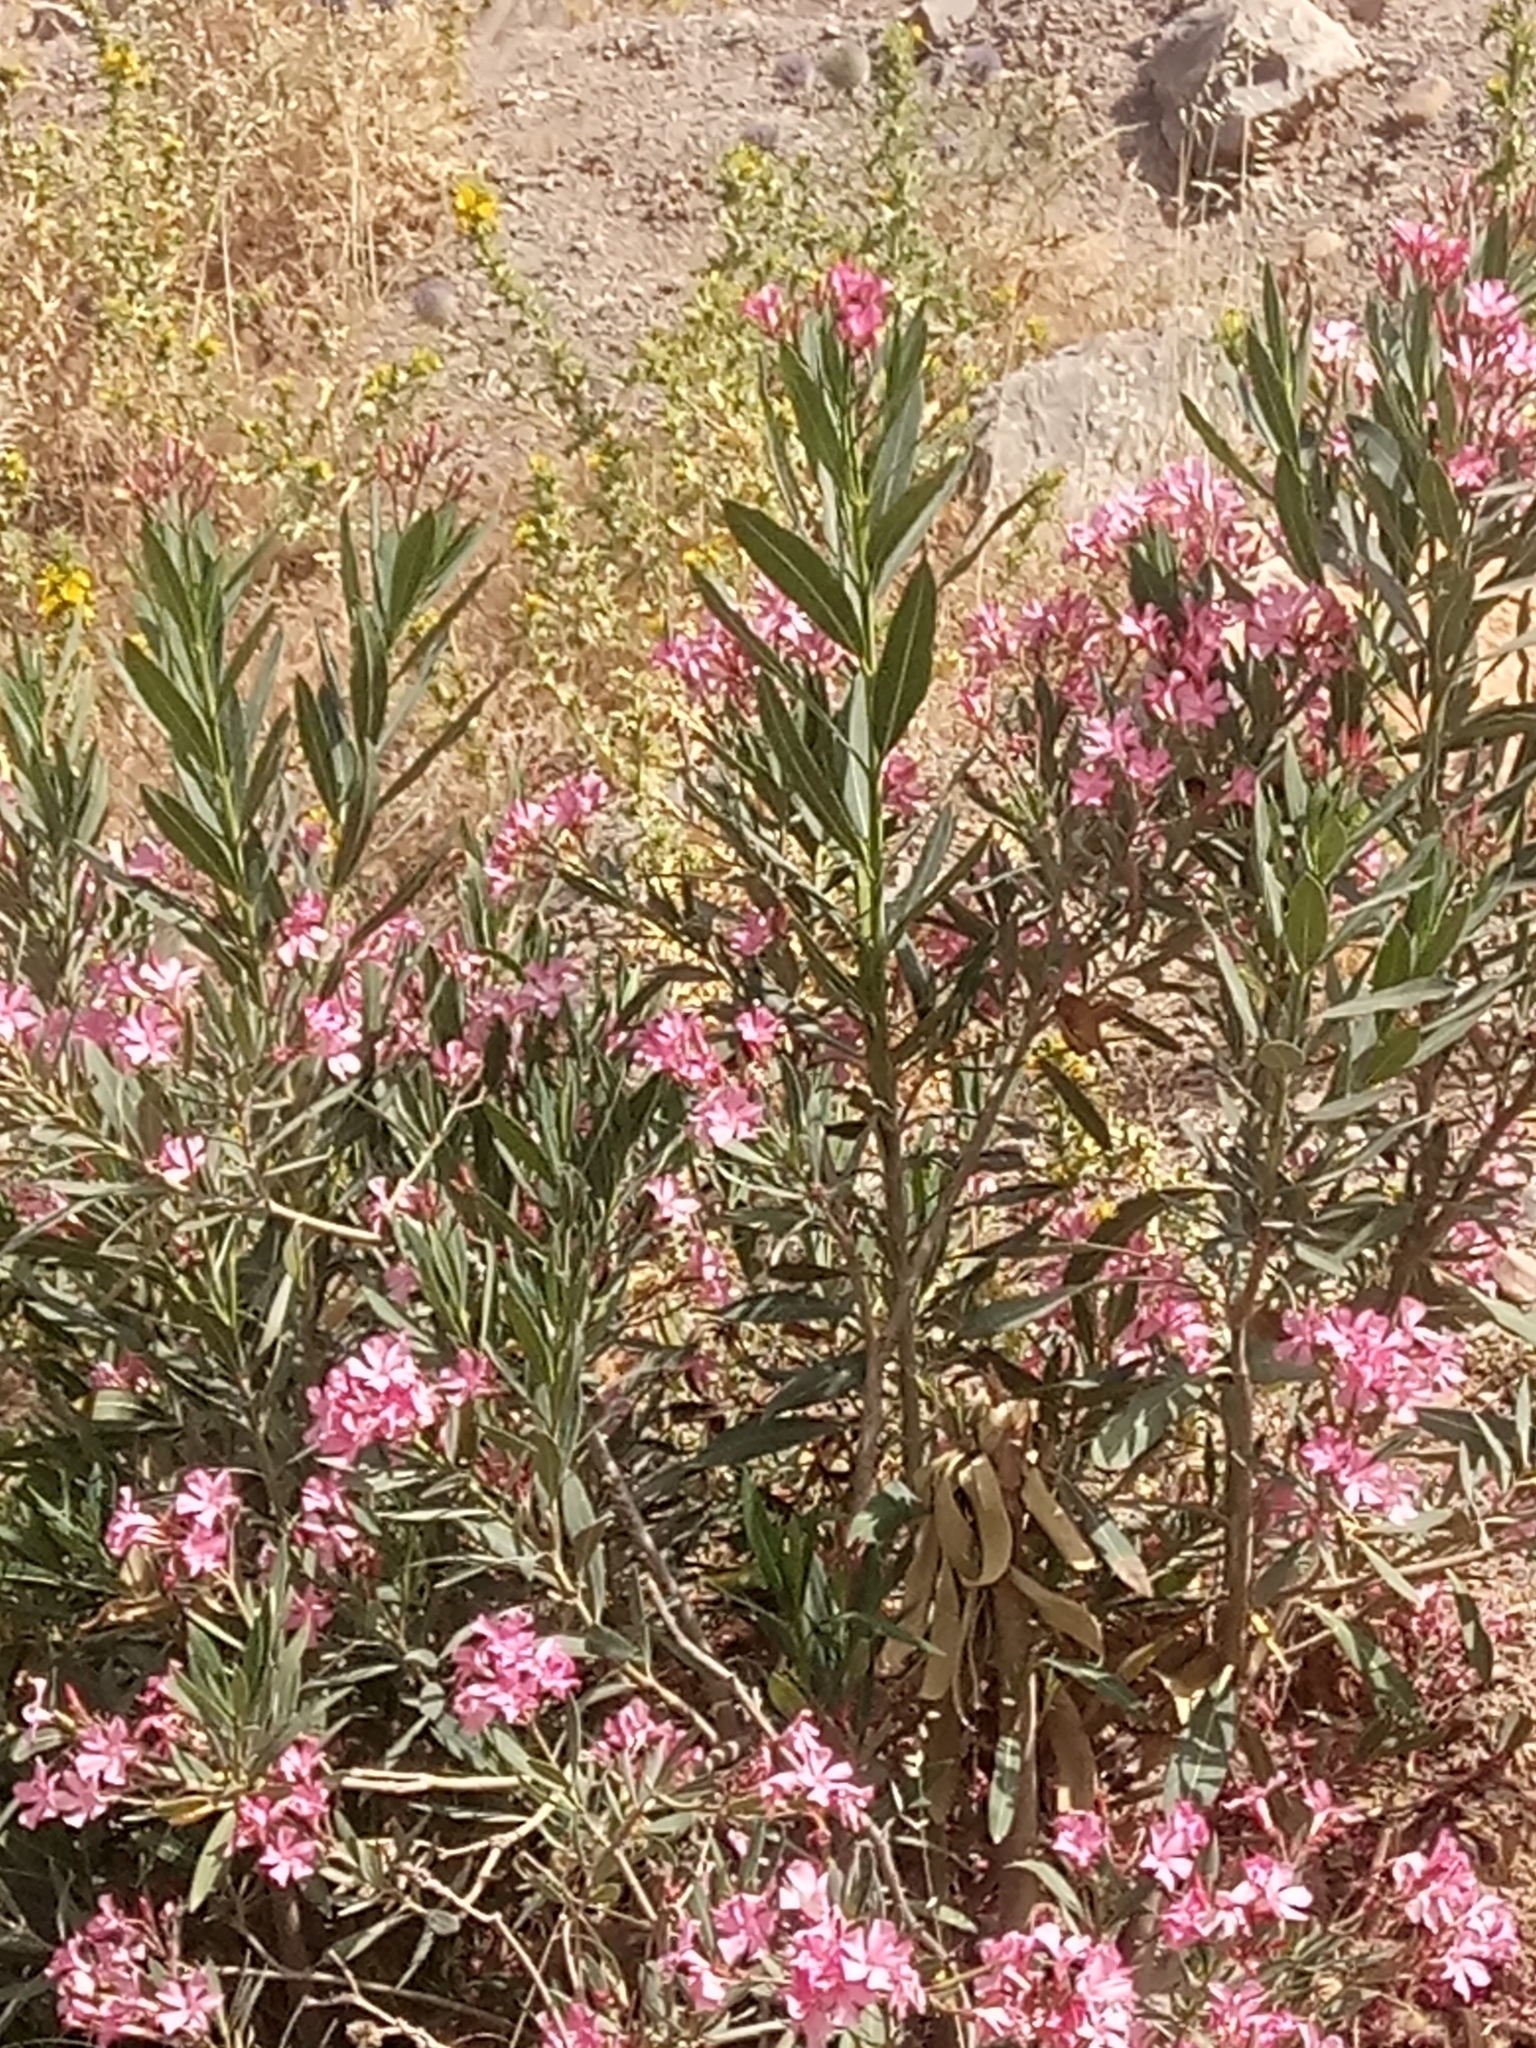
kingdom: Plantae
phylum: Tracheophyta
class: Magnoliopsida
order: Gentianales
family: Apocynaceae
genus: Nerium
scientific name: Nerium oleander
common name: Oleander
